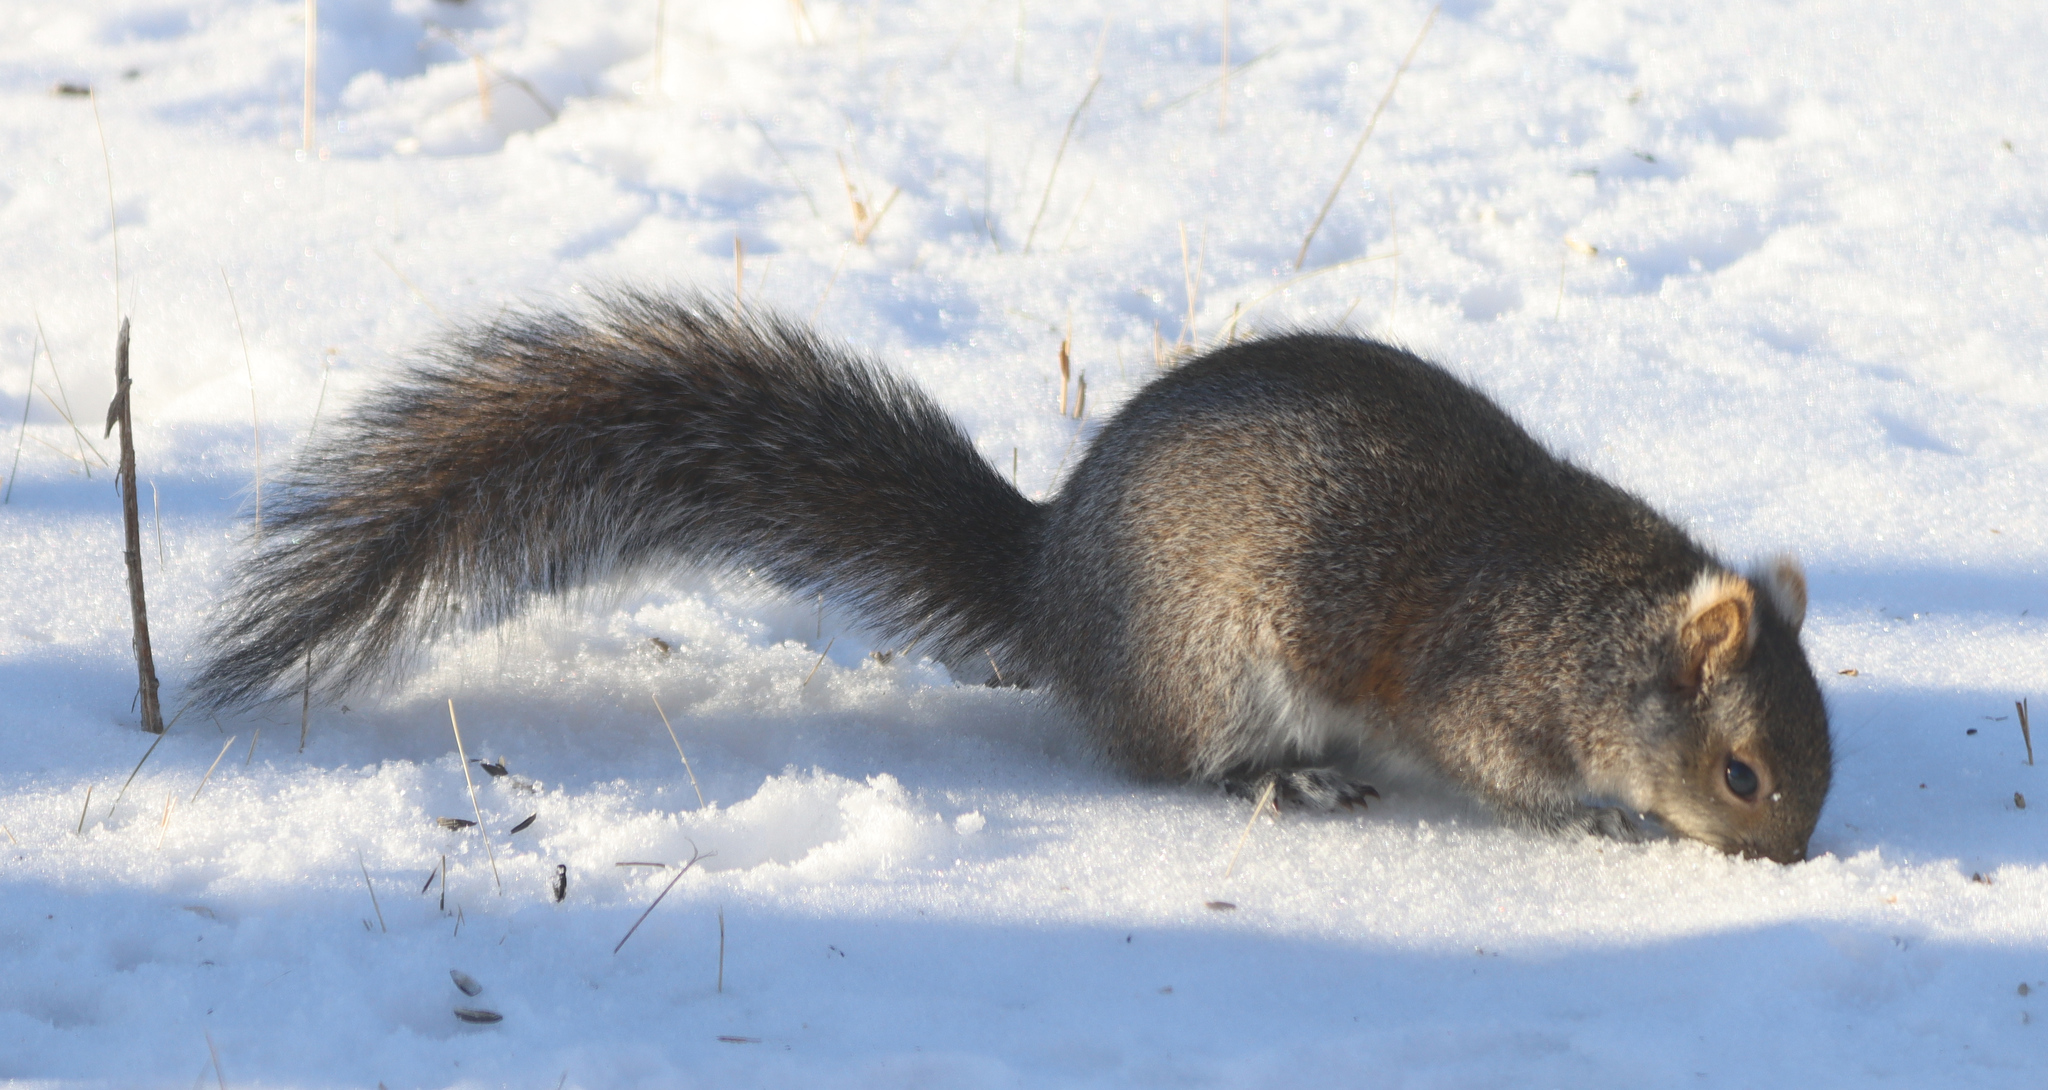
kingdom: Animalia
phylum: Chordata
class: Mammalia
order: Rodentia
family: Sciuridae
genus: Sciurus
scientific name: Sciurus carolinensis
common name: Eastern gray squirrel
